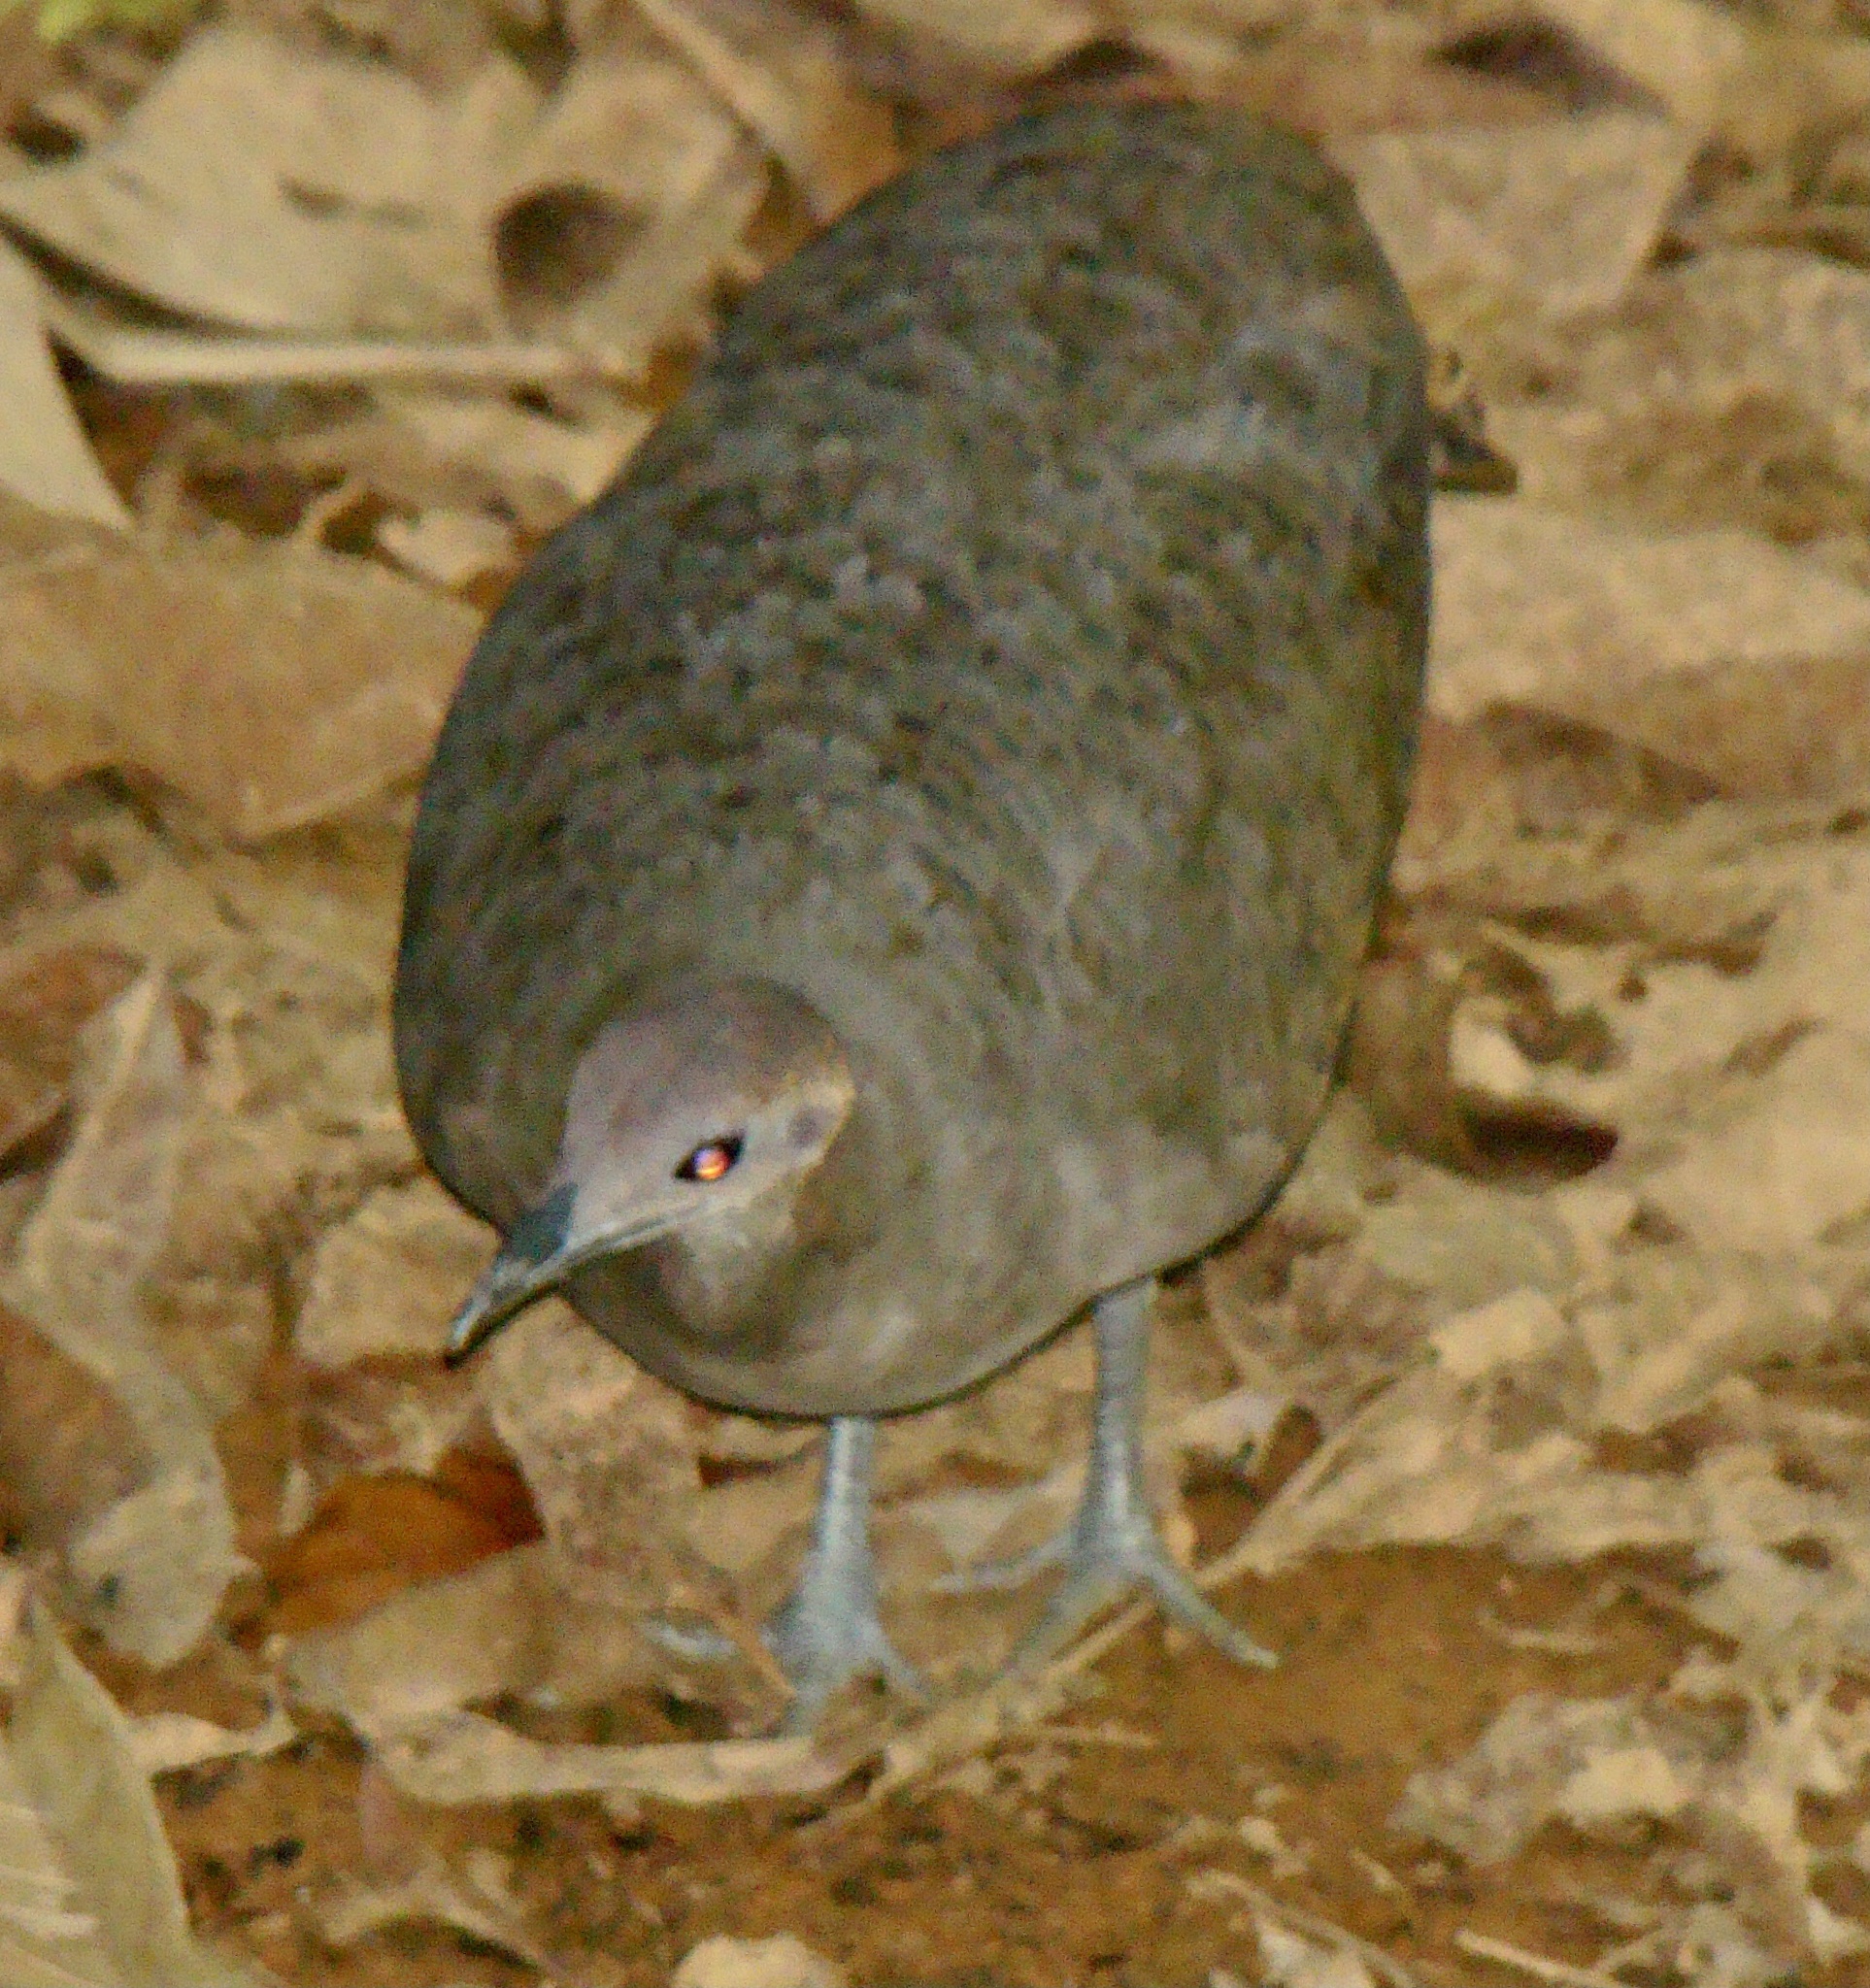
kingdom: Animalia
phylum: Chordata
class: Aves
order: Tinamiformes
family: Tinamidae
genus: Tinamus
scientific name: Tinamus major
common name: Great tinamou
